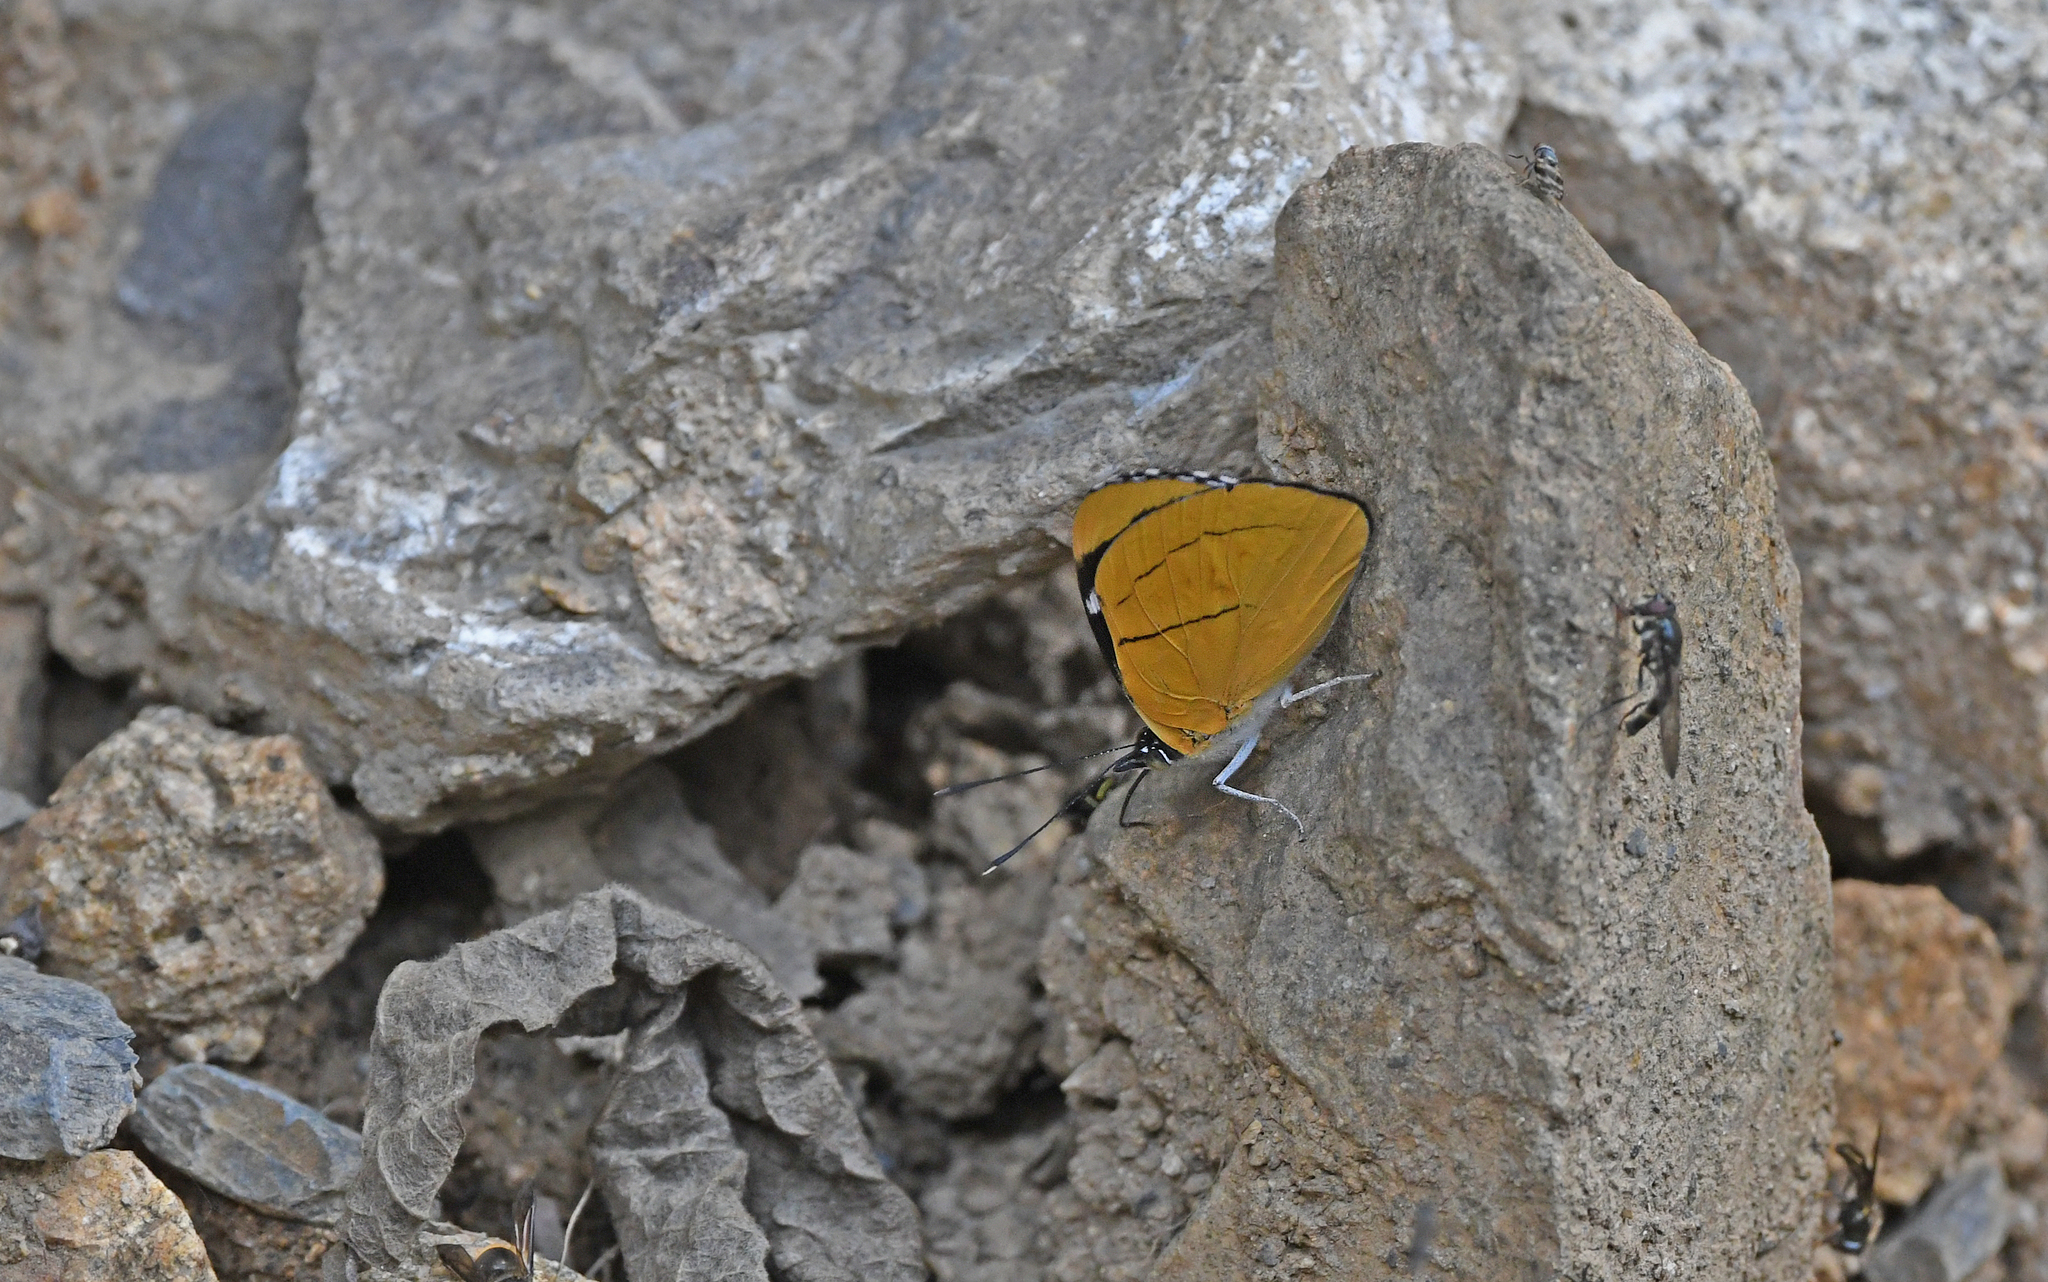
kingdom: Animalia
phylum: Arthropoda
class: Insecta
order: Lepidoptera
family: Nymphalidae
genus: Perisama
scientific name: Perisama comnena
